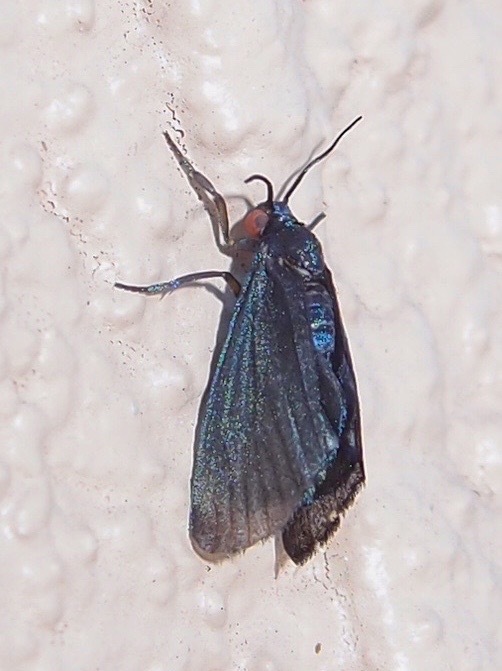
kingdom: Animalia
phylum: Arthropoda
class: Insecta
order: Lepidoptera
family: Erebidae
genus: Stenucha
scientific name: Stenucha dolens
